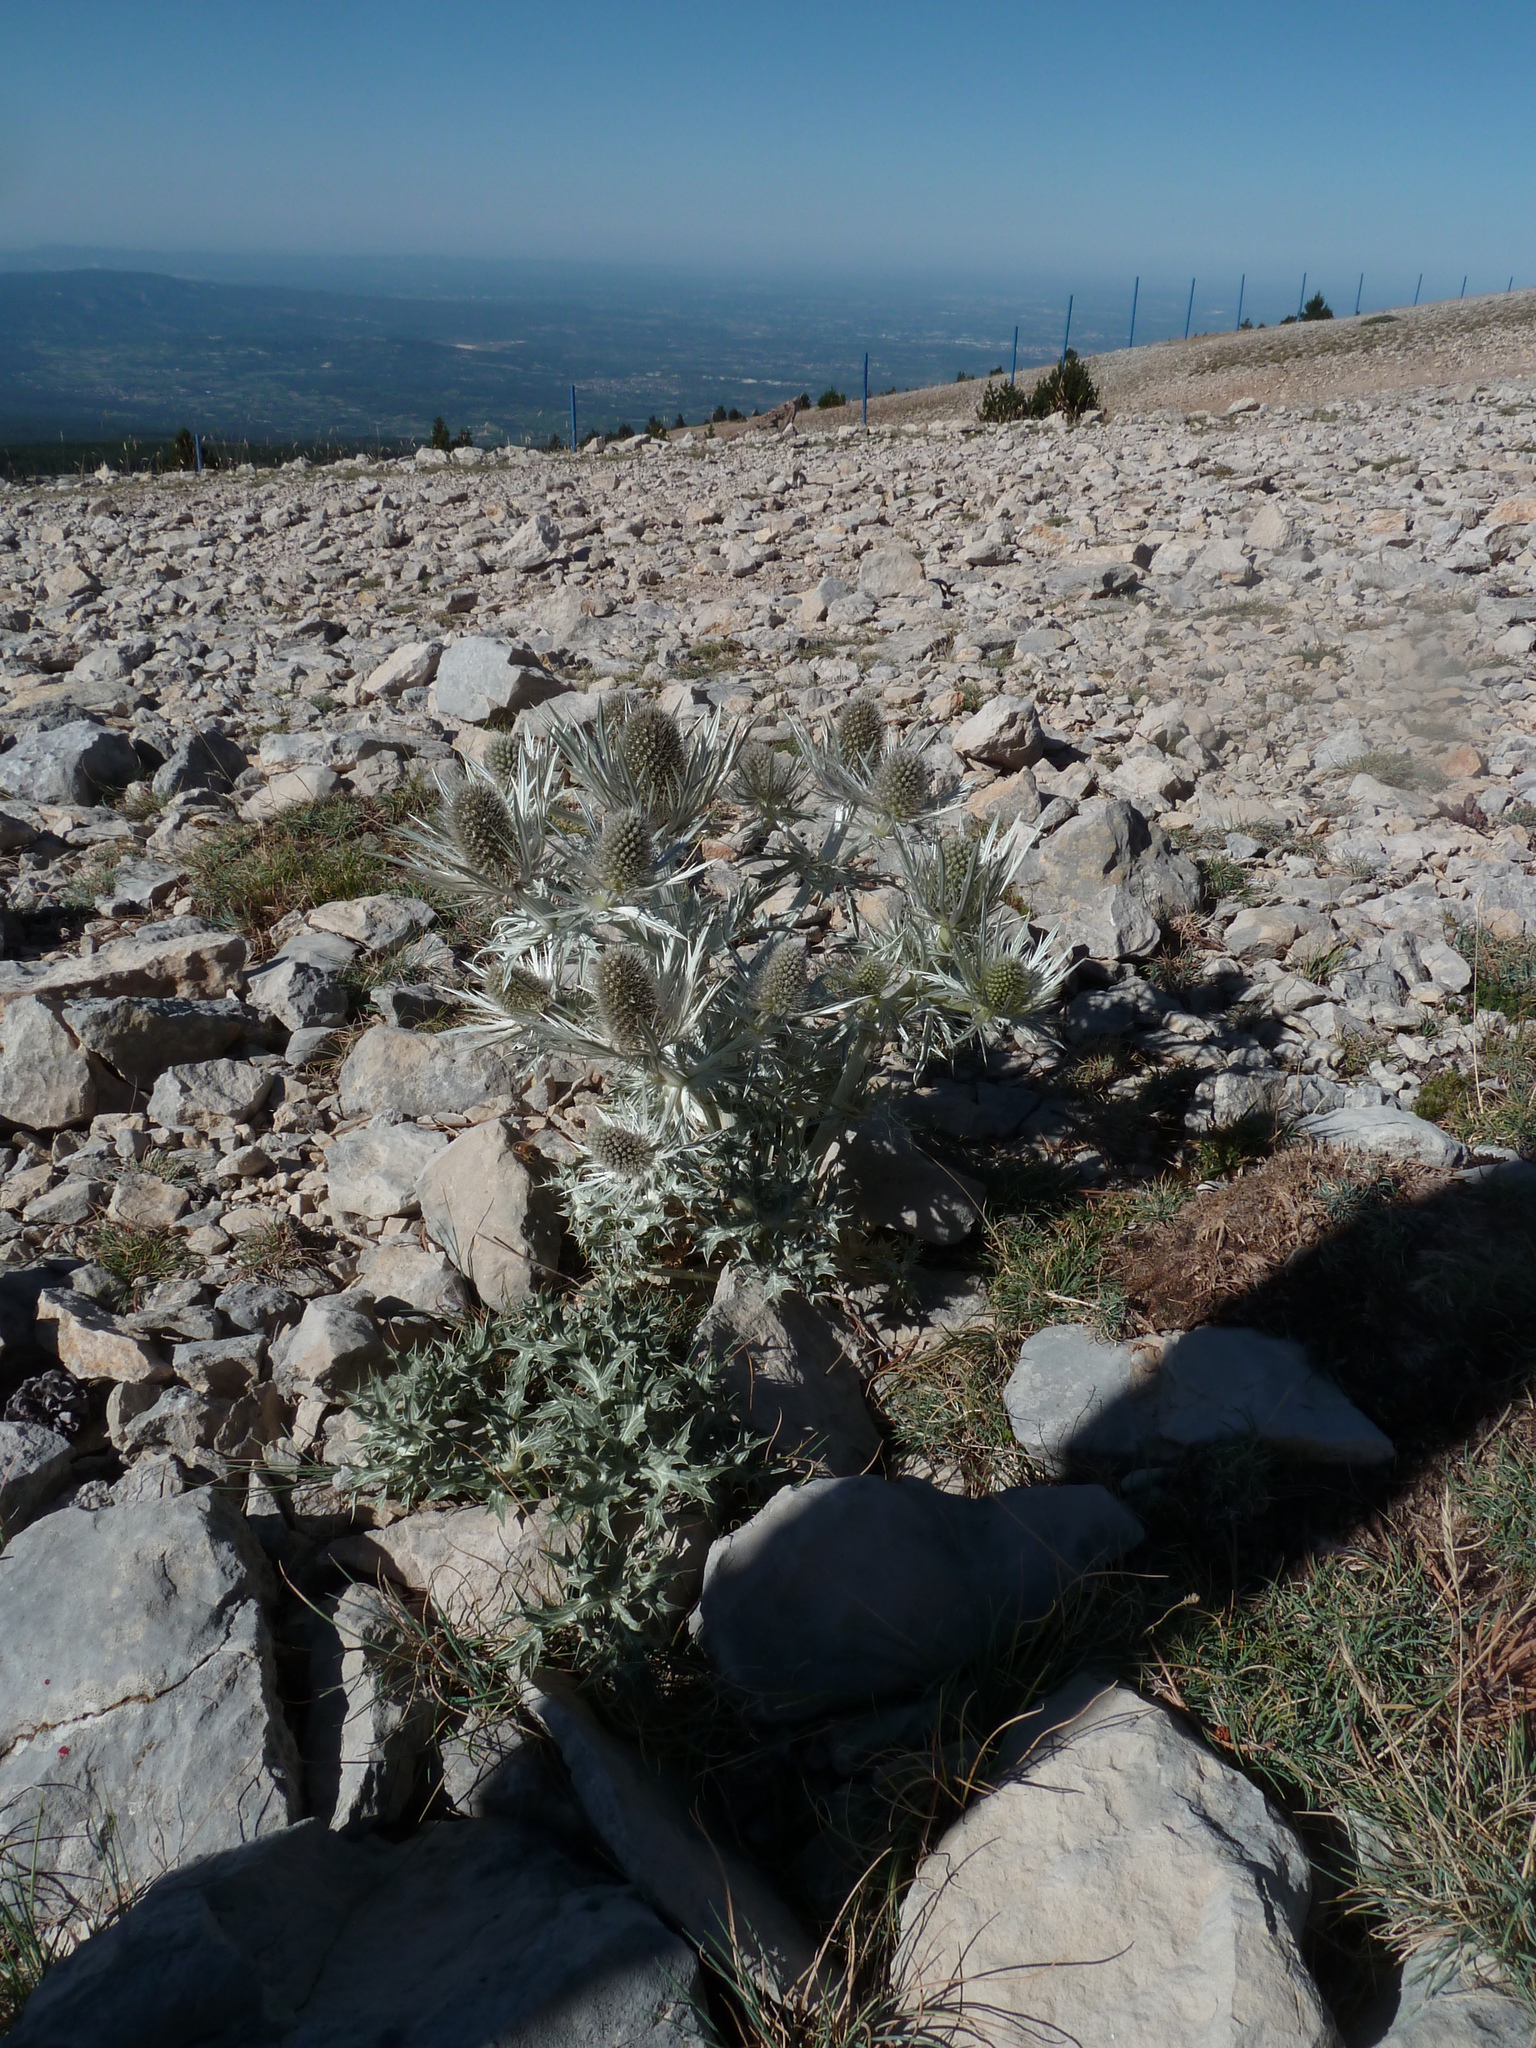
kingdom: Plantae
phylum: Tracheophyta
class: Magnoliopsida
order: Apiales
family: Apiaceae
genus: Eryngium
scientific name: Eryngium spinalba
